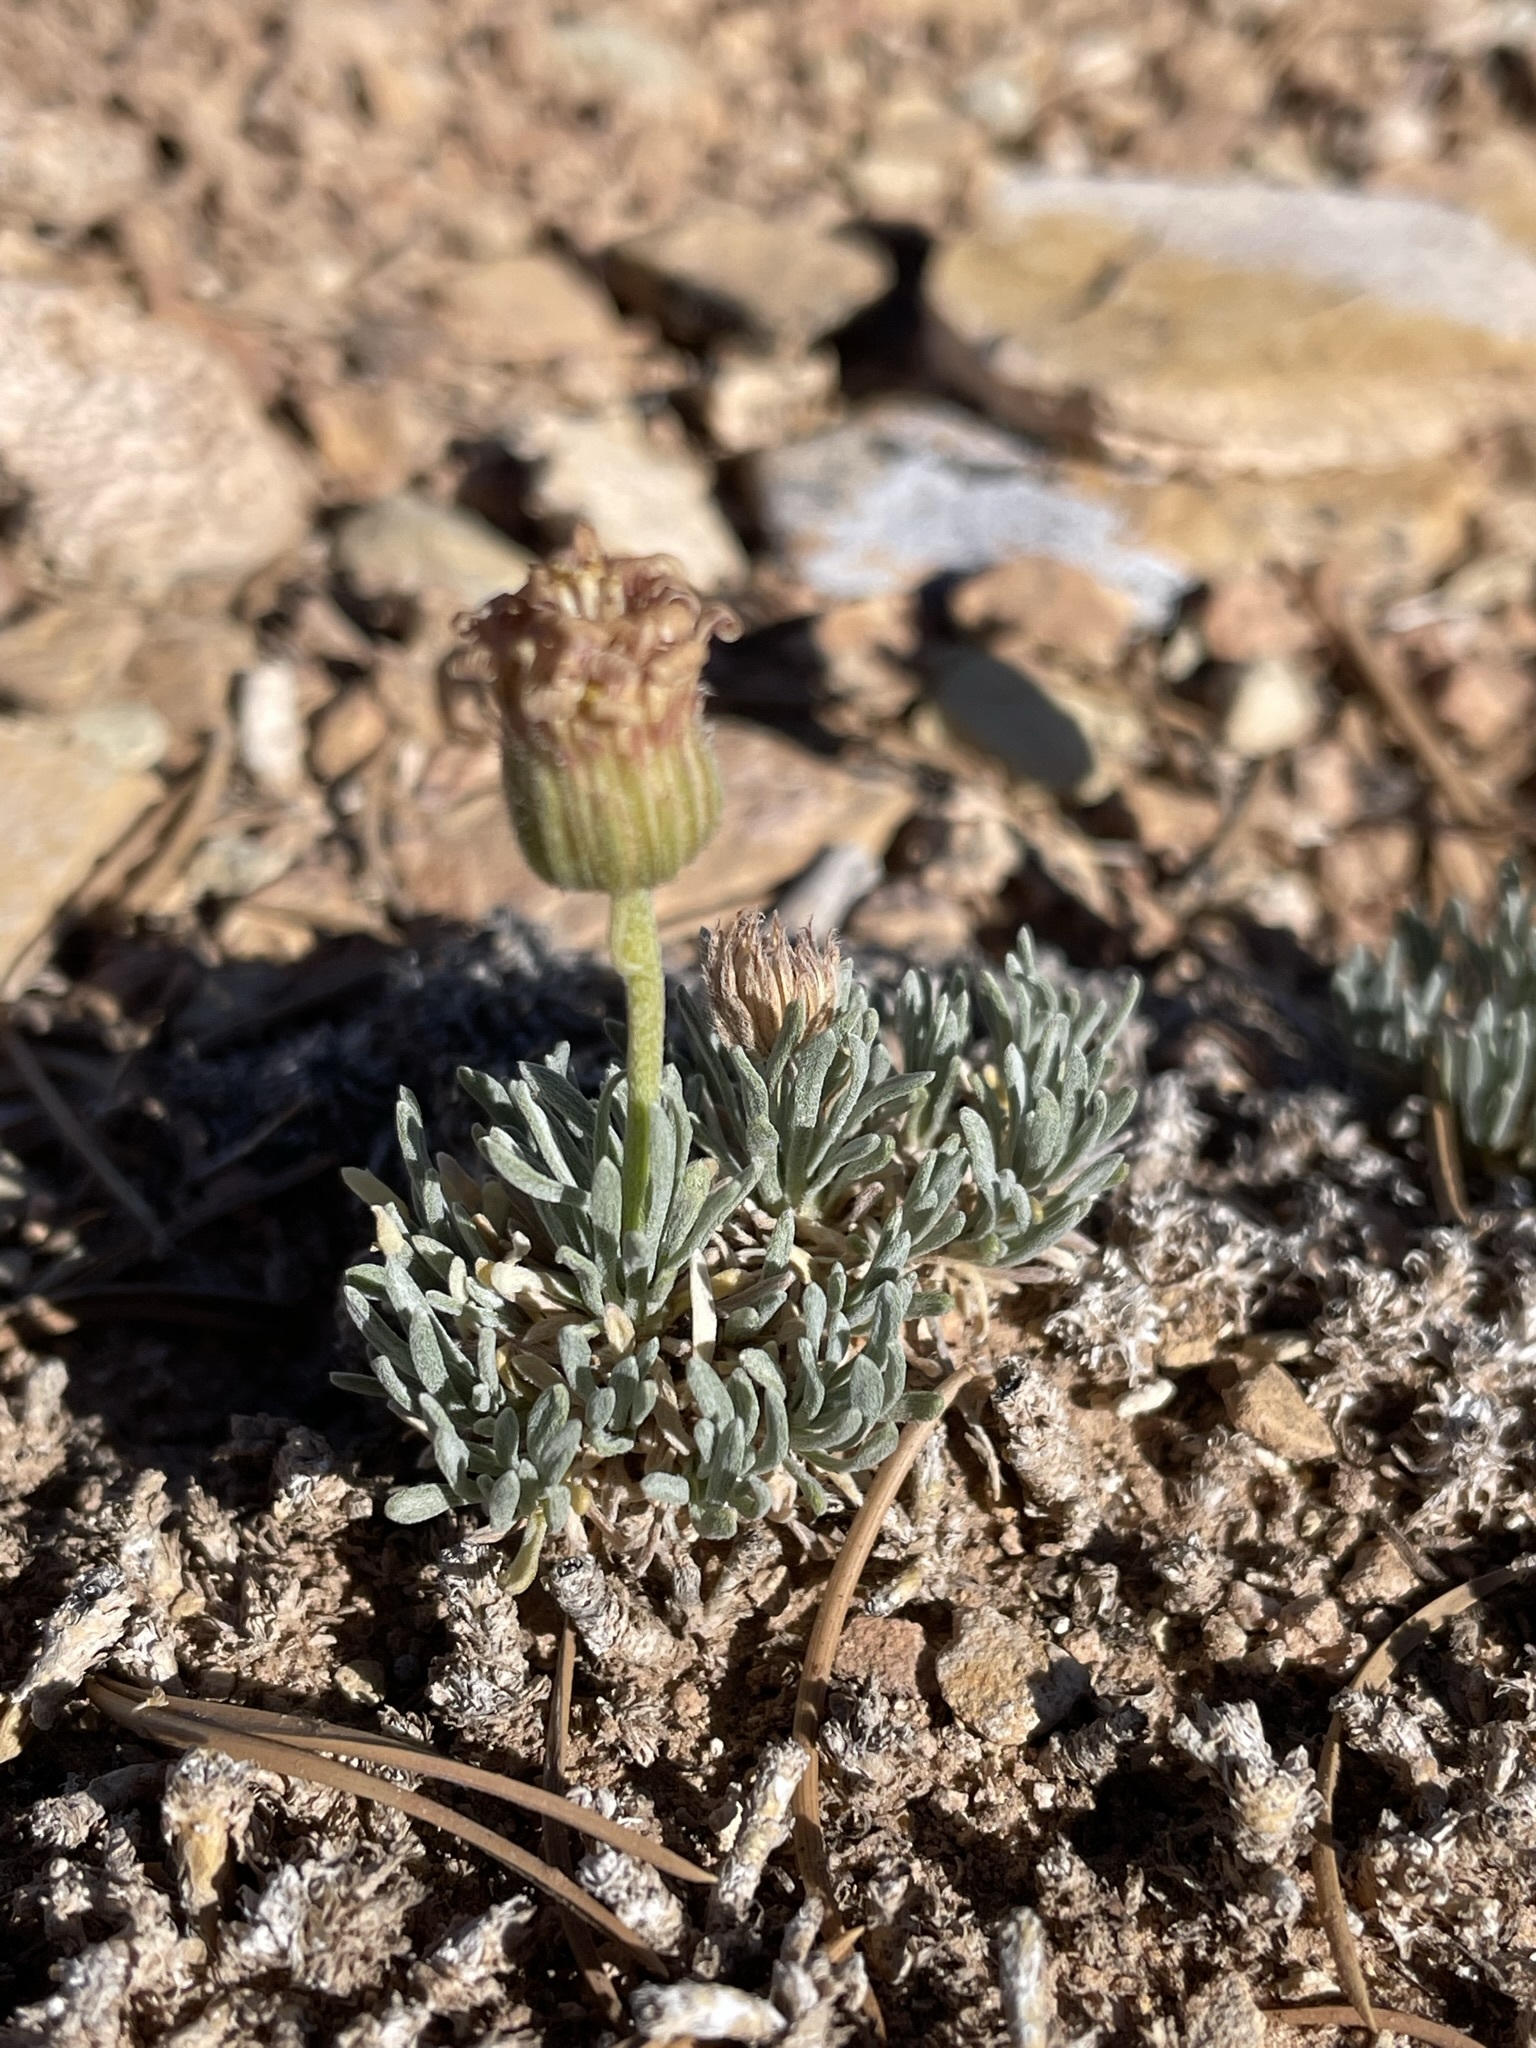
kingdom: Plantae
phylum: Tracheophyta
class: Magnoliopsida
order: Asterales
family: Asteraceae
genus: Erigeron
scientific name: Erigeron compactus
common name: Fern-leaf fleabane
